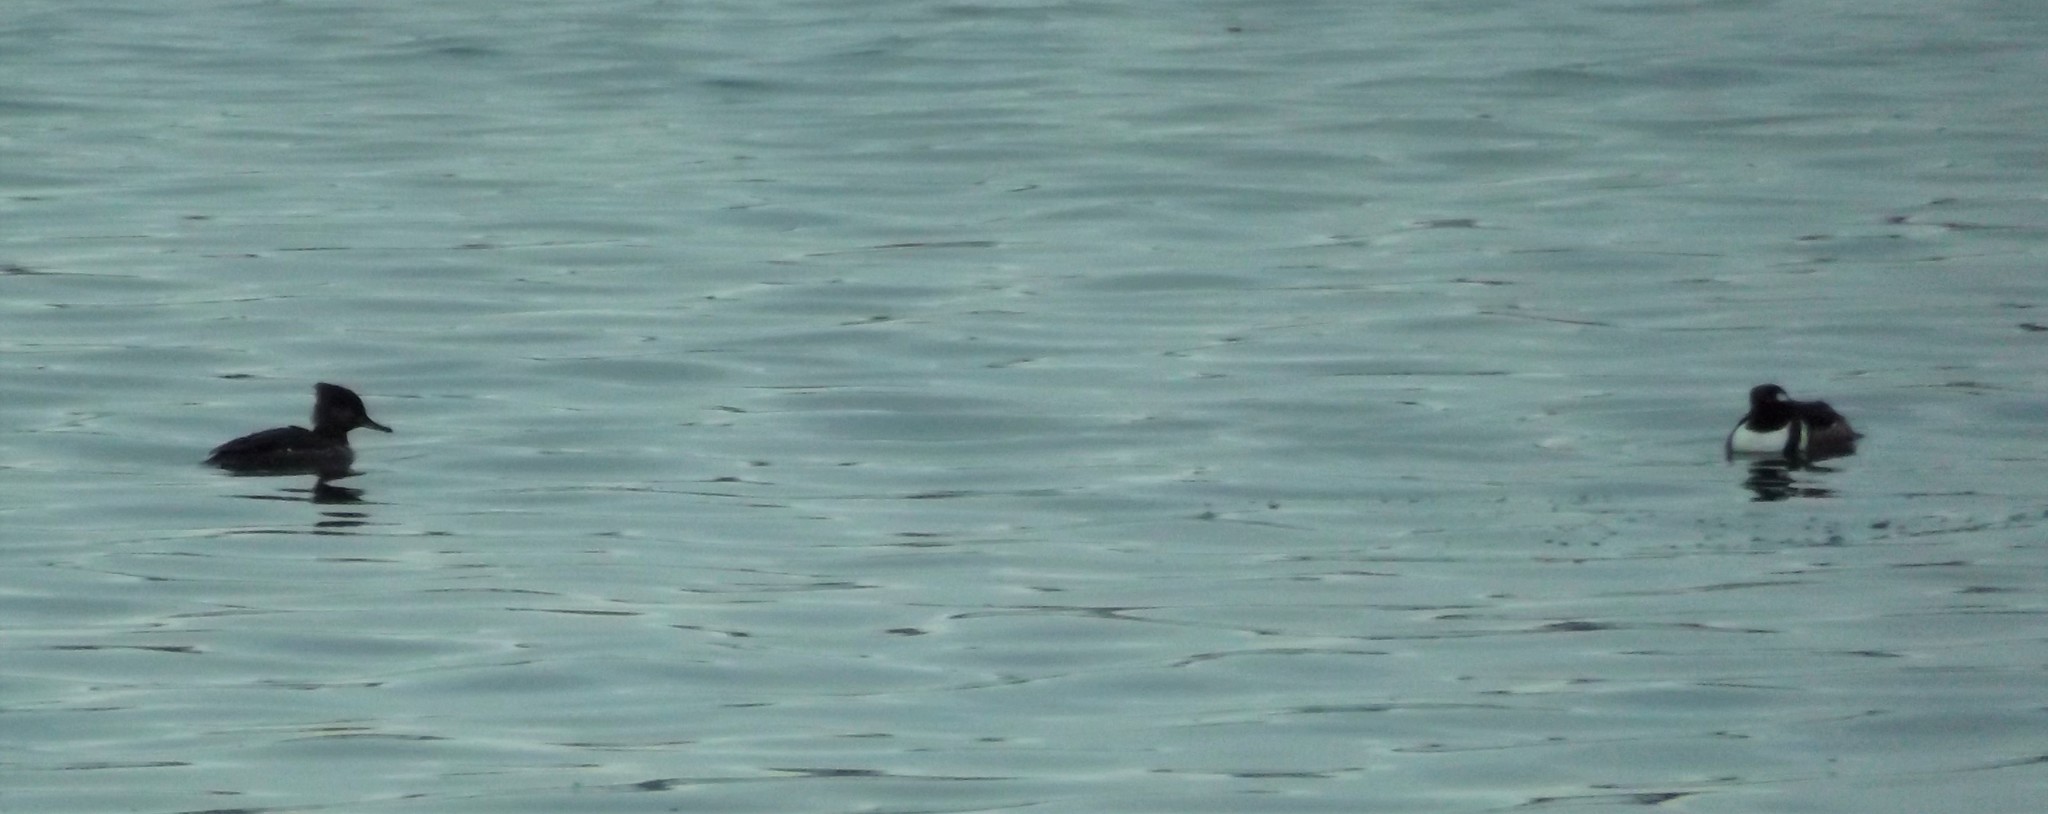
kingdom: Animalia
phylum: Chordata
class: Aves
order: Anseriformes
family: Anatidae
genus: Lophodytes
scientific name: Lophodytes cucullatus
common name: Hooded merganser
